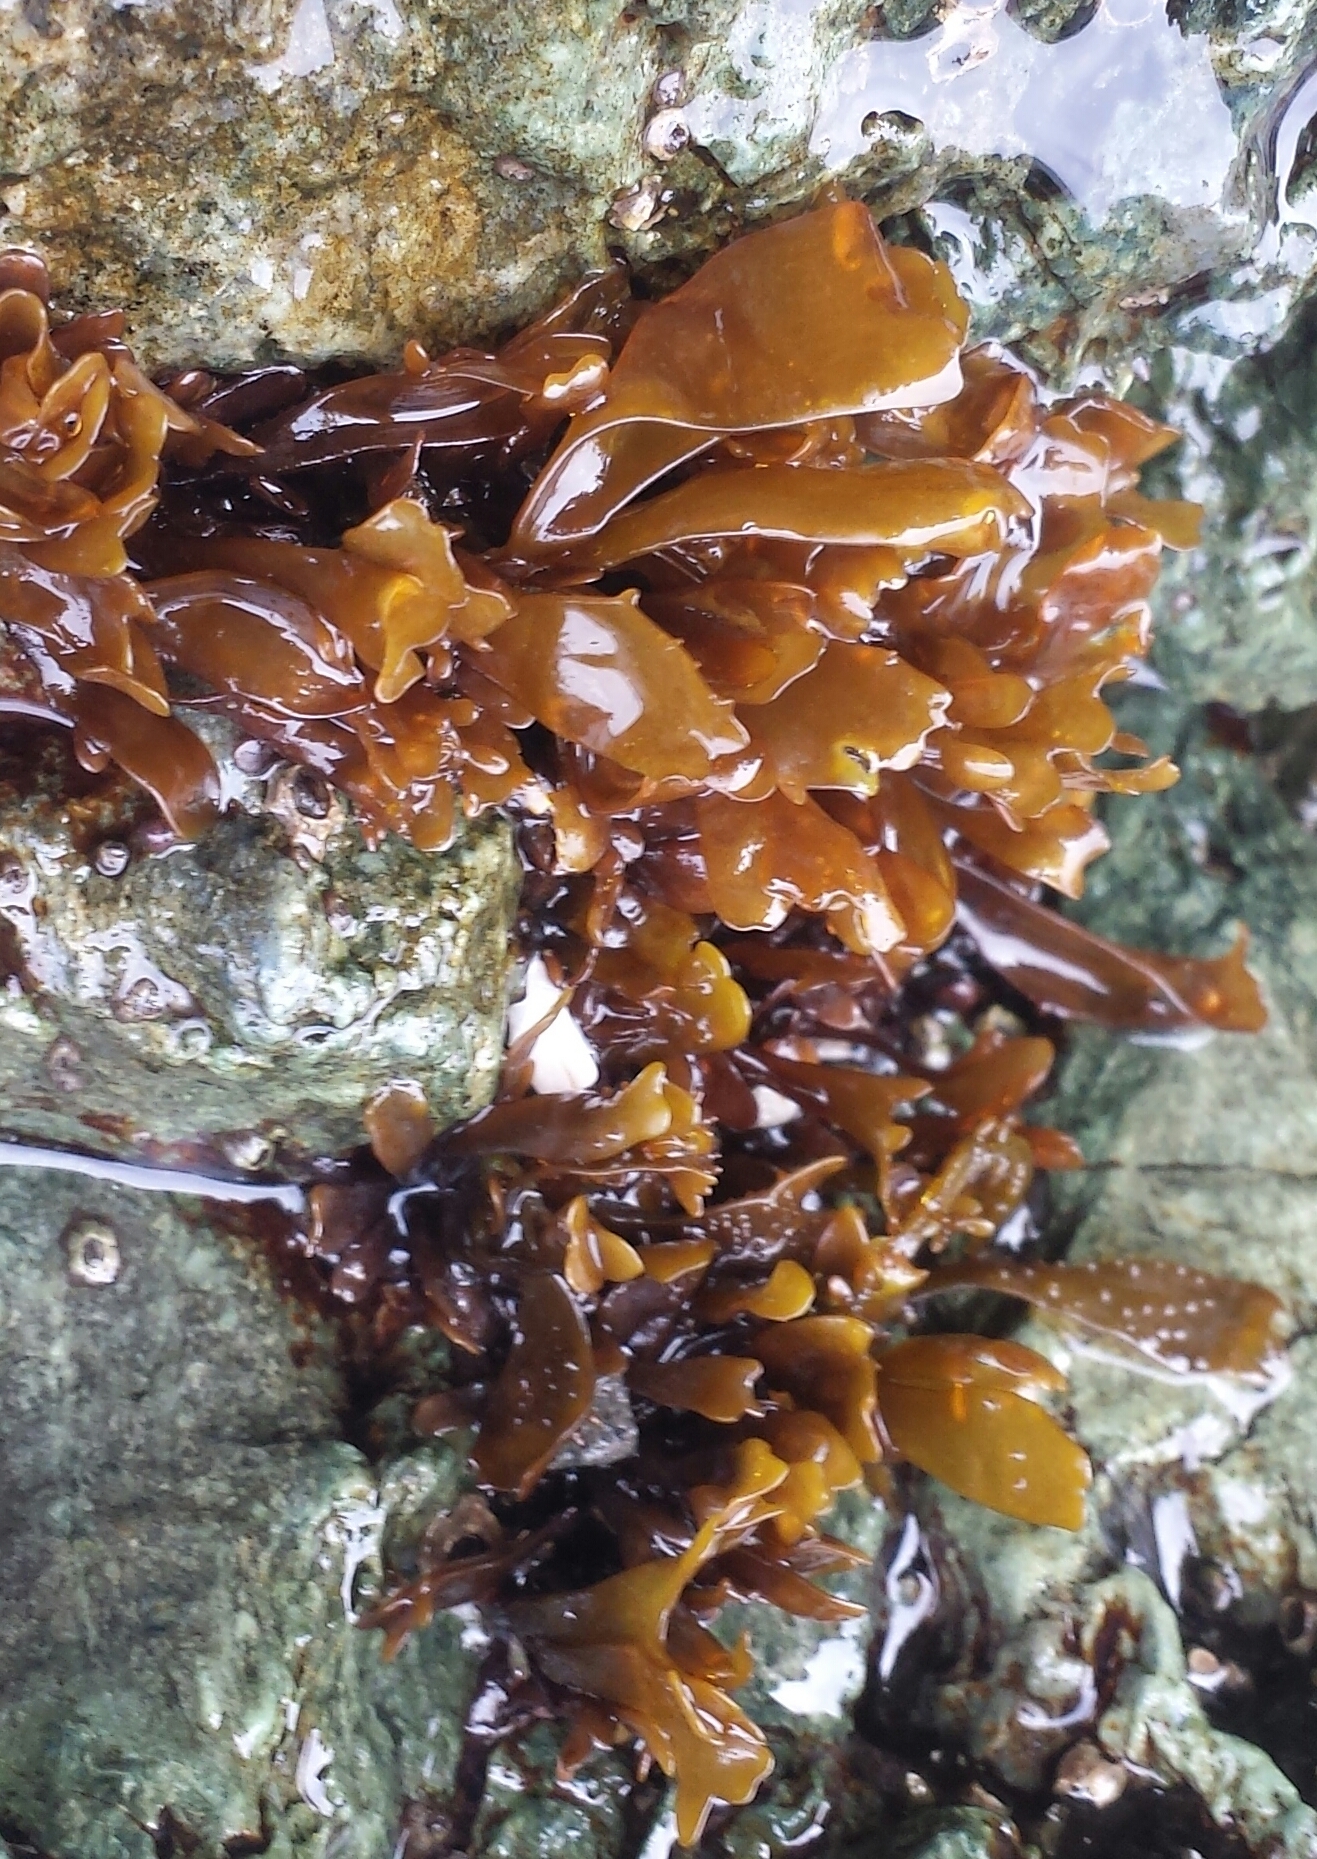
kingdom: Plantae
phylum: Rhodophyta
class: Florideophyceae
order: Gigartinales
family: Phyllophoraceae
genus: Mastocarpus
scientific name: Mastocarpus papillatus
